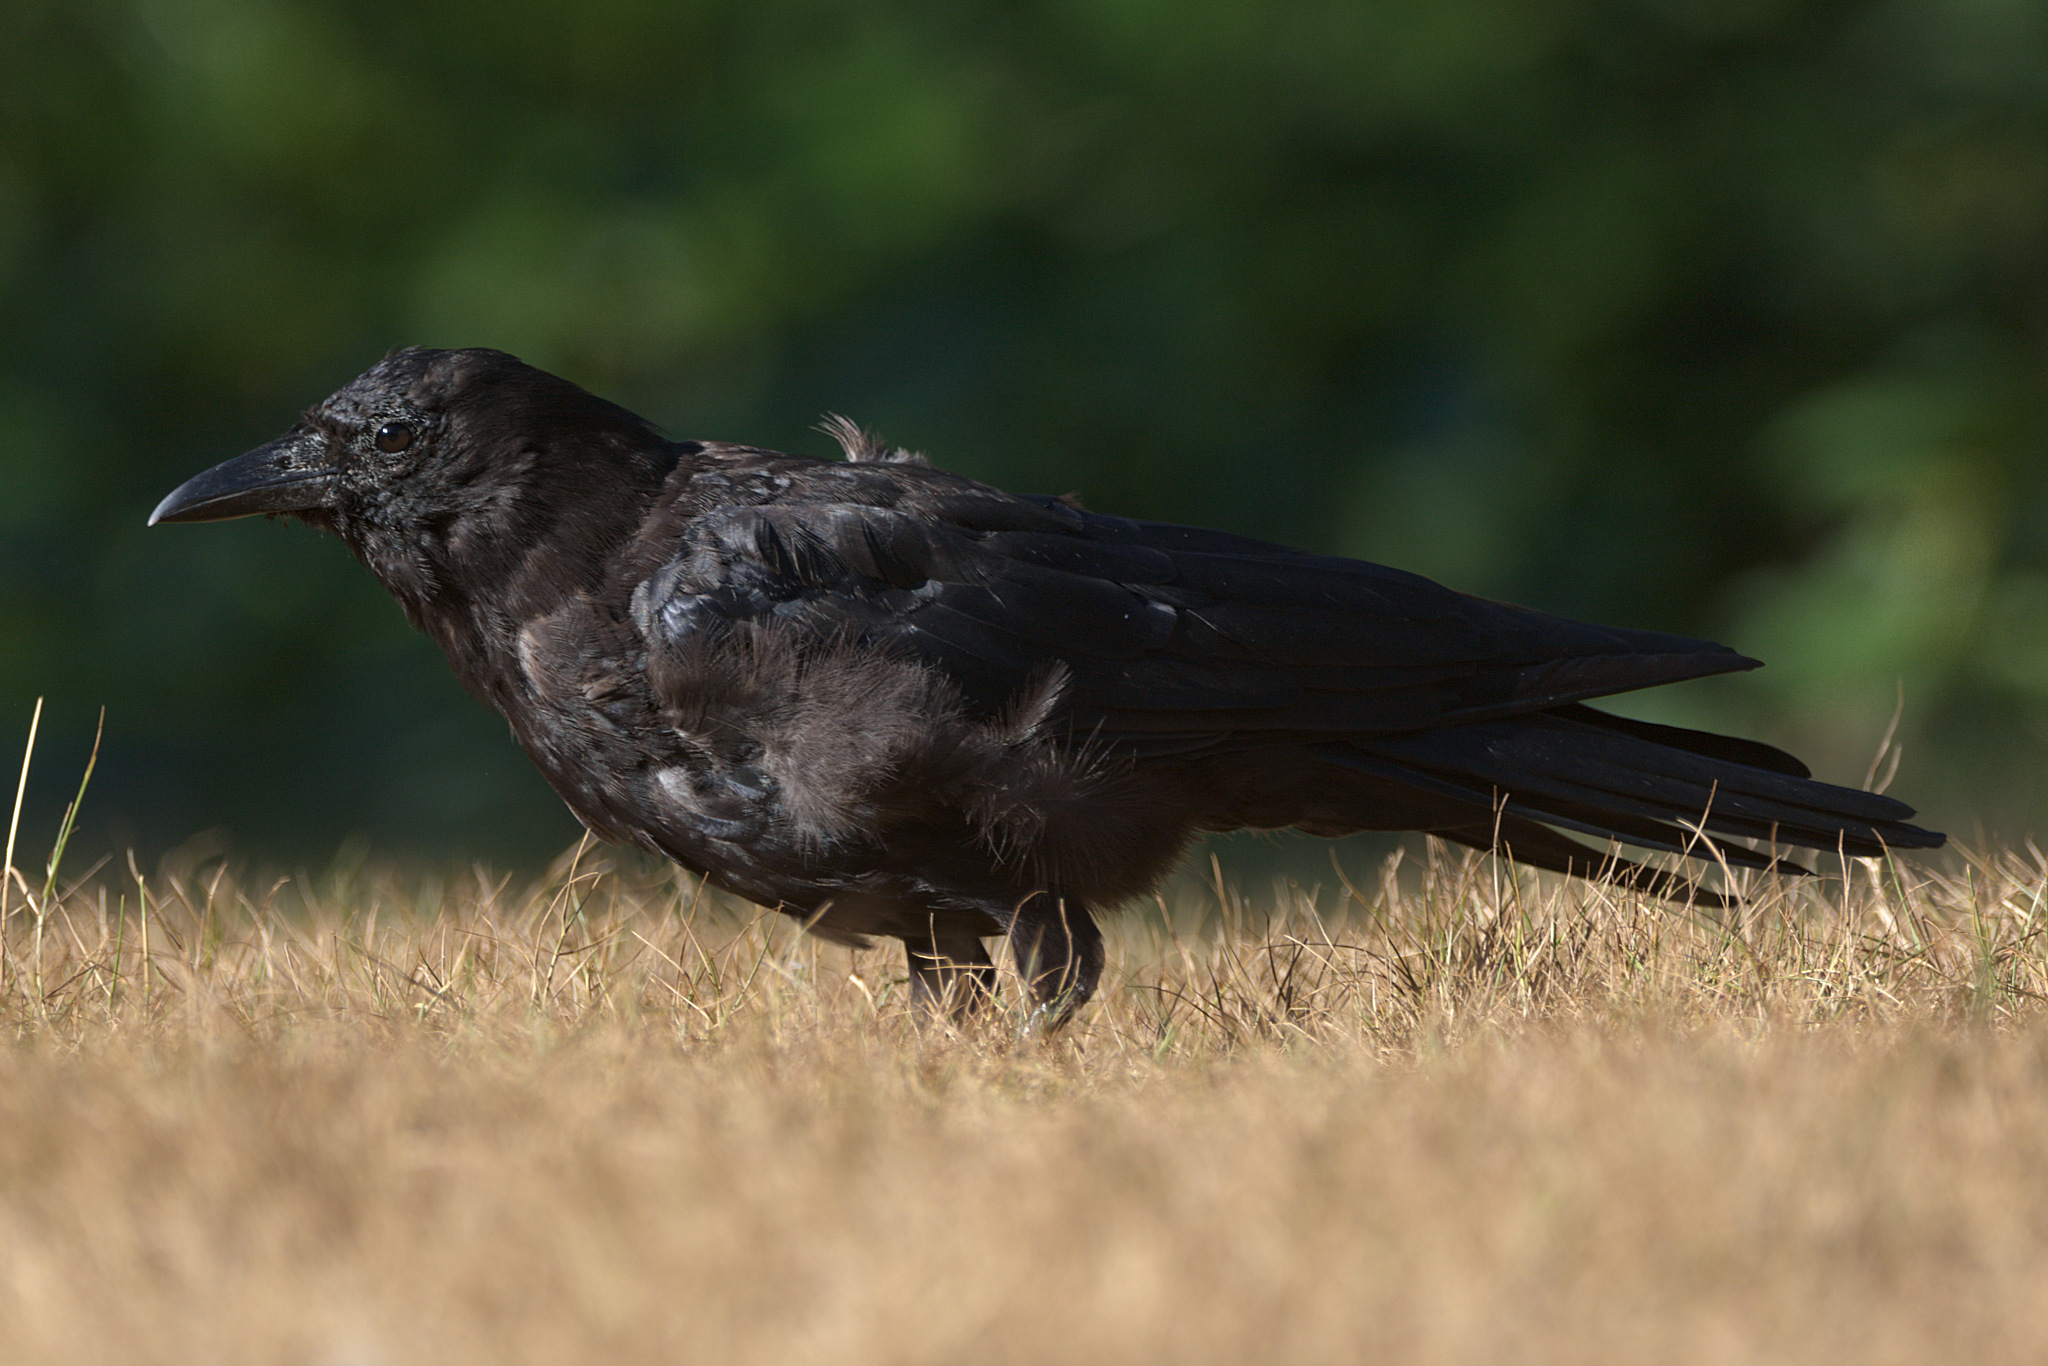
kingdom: Animalia
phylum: Chordata
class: Aves
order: Passeriformes
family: Corvidae
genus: Corvus
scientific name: Corvus brachyrhynchos
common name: American crow
